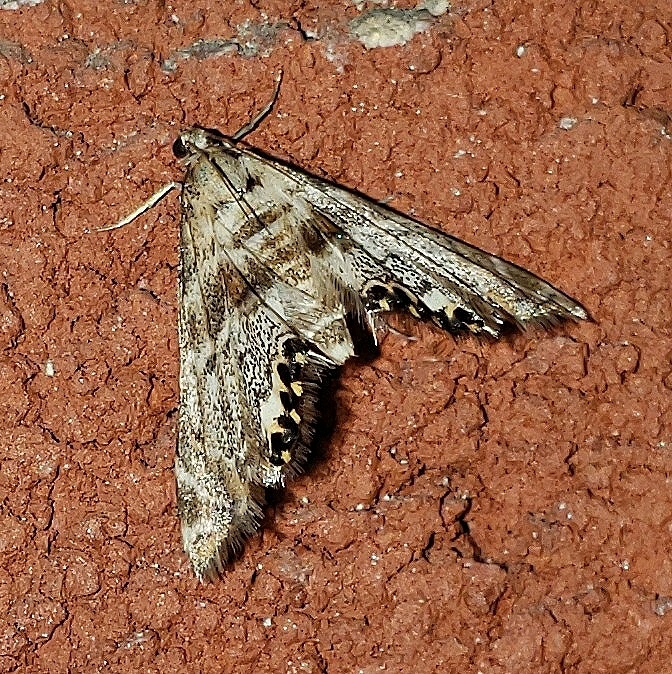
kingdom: Animalia
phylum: Arthropoda
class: Insecta
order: Lepidoptera
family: Crambidae
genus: Petrophila
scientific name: Petrophila fulicalis
